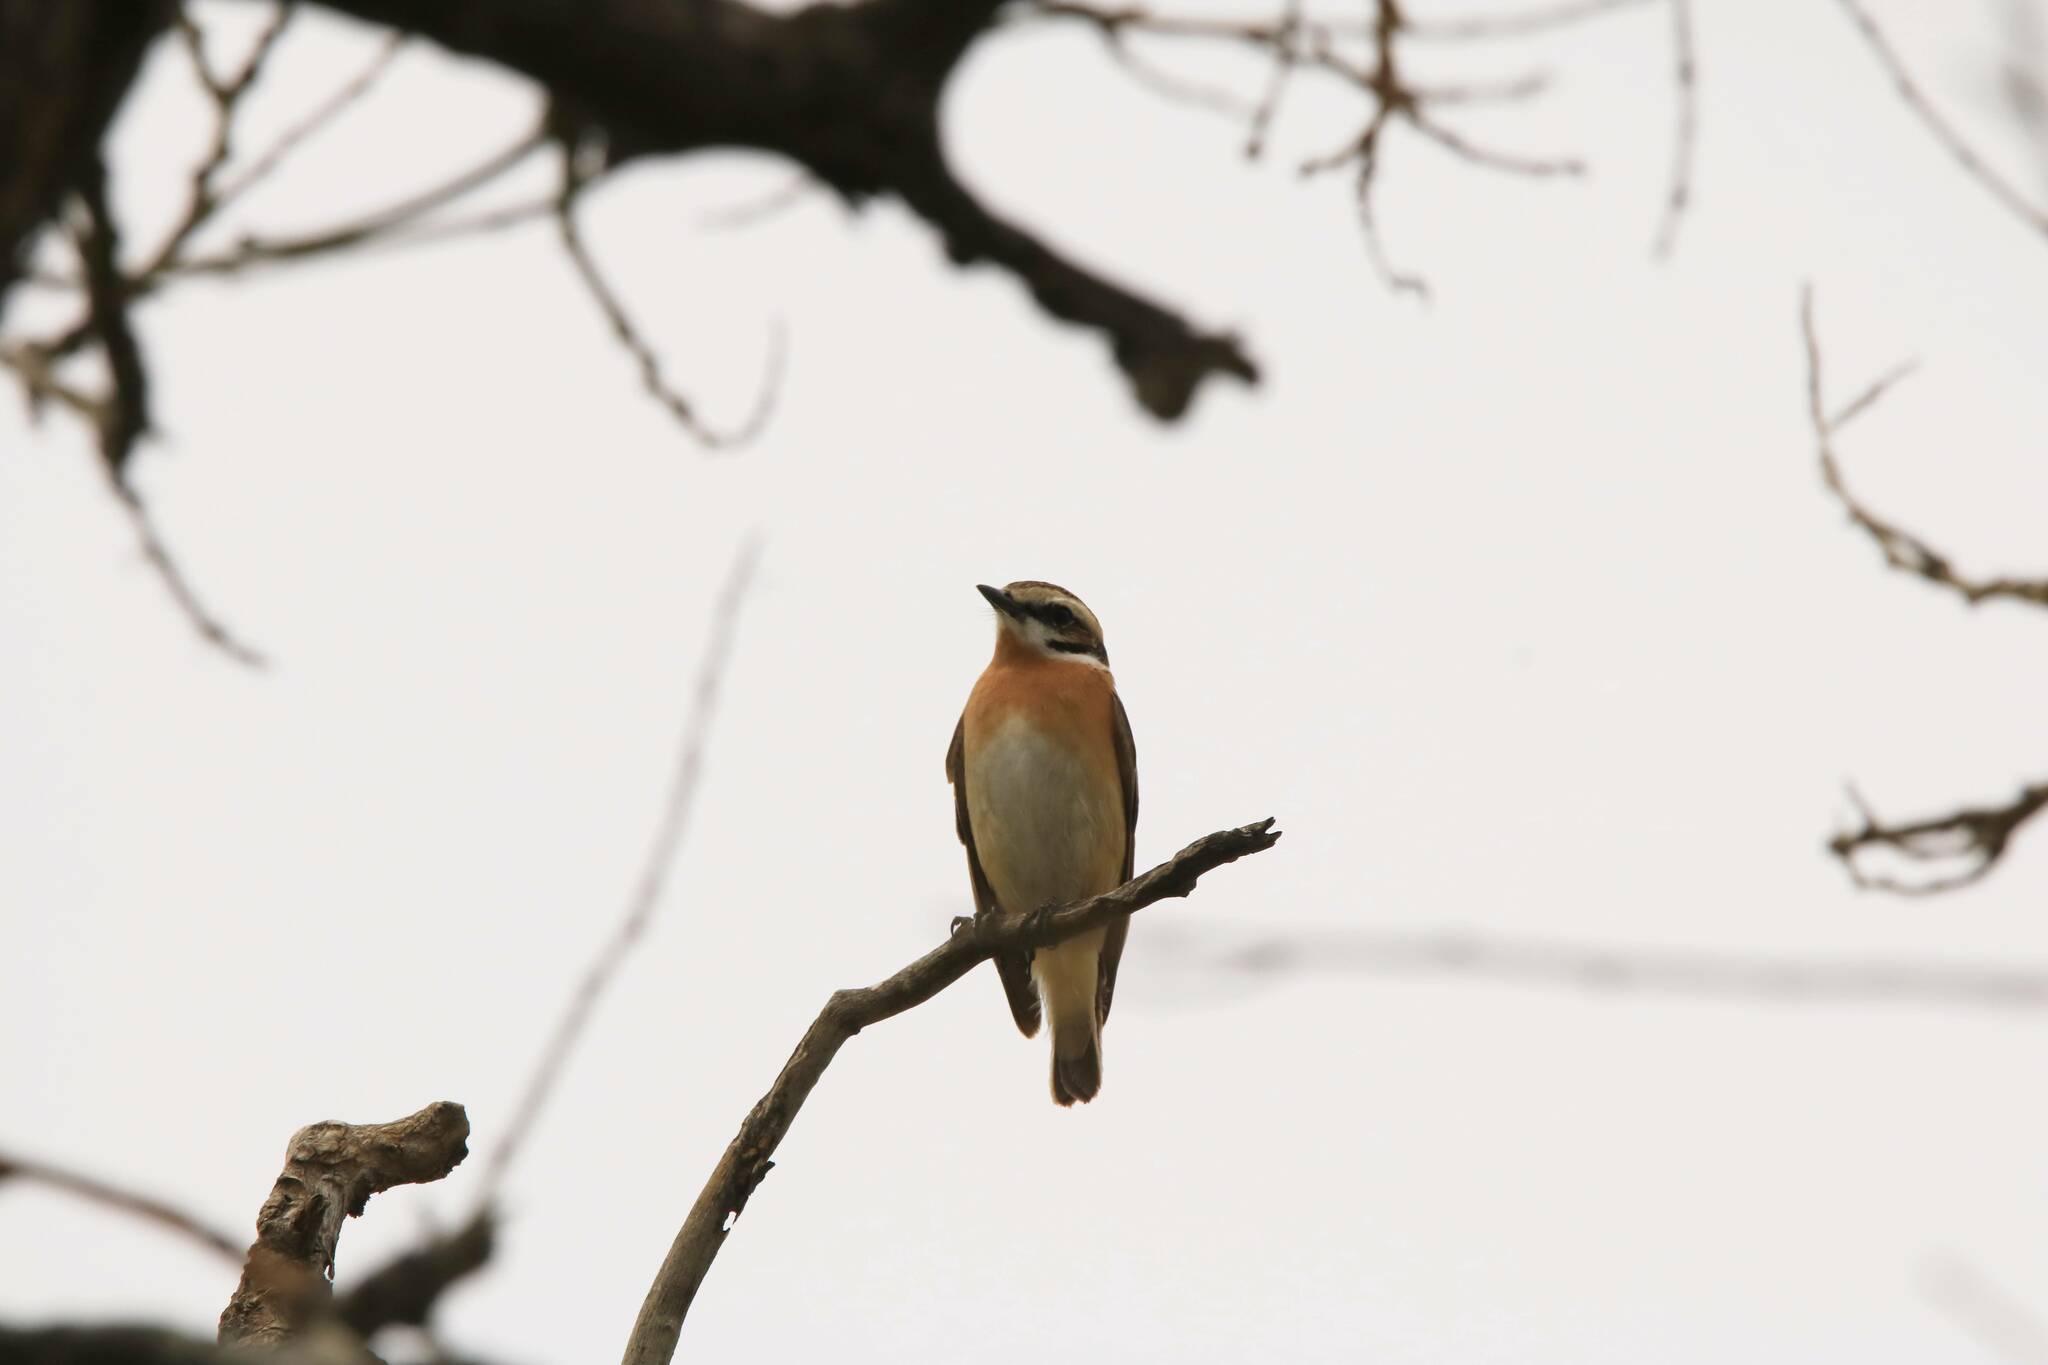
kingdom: Animalia
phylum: Chordata
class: Aves
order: Passeriformes
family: Muscicapidae
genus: Saxicola
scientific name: Saxicola rubetra
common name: Whinchat
